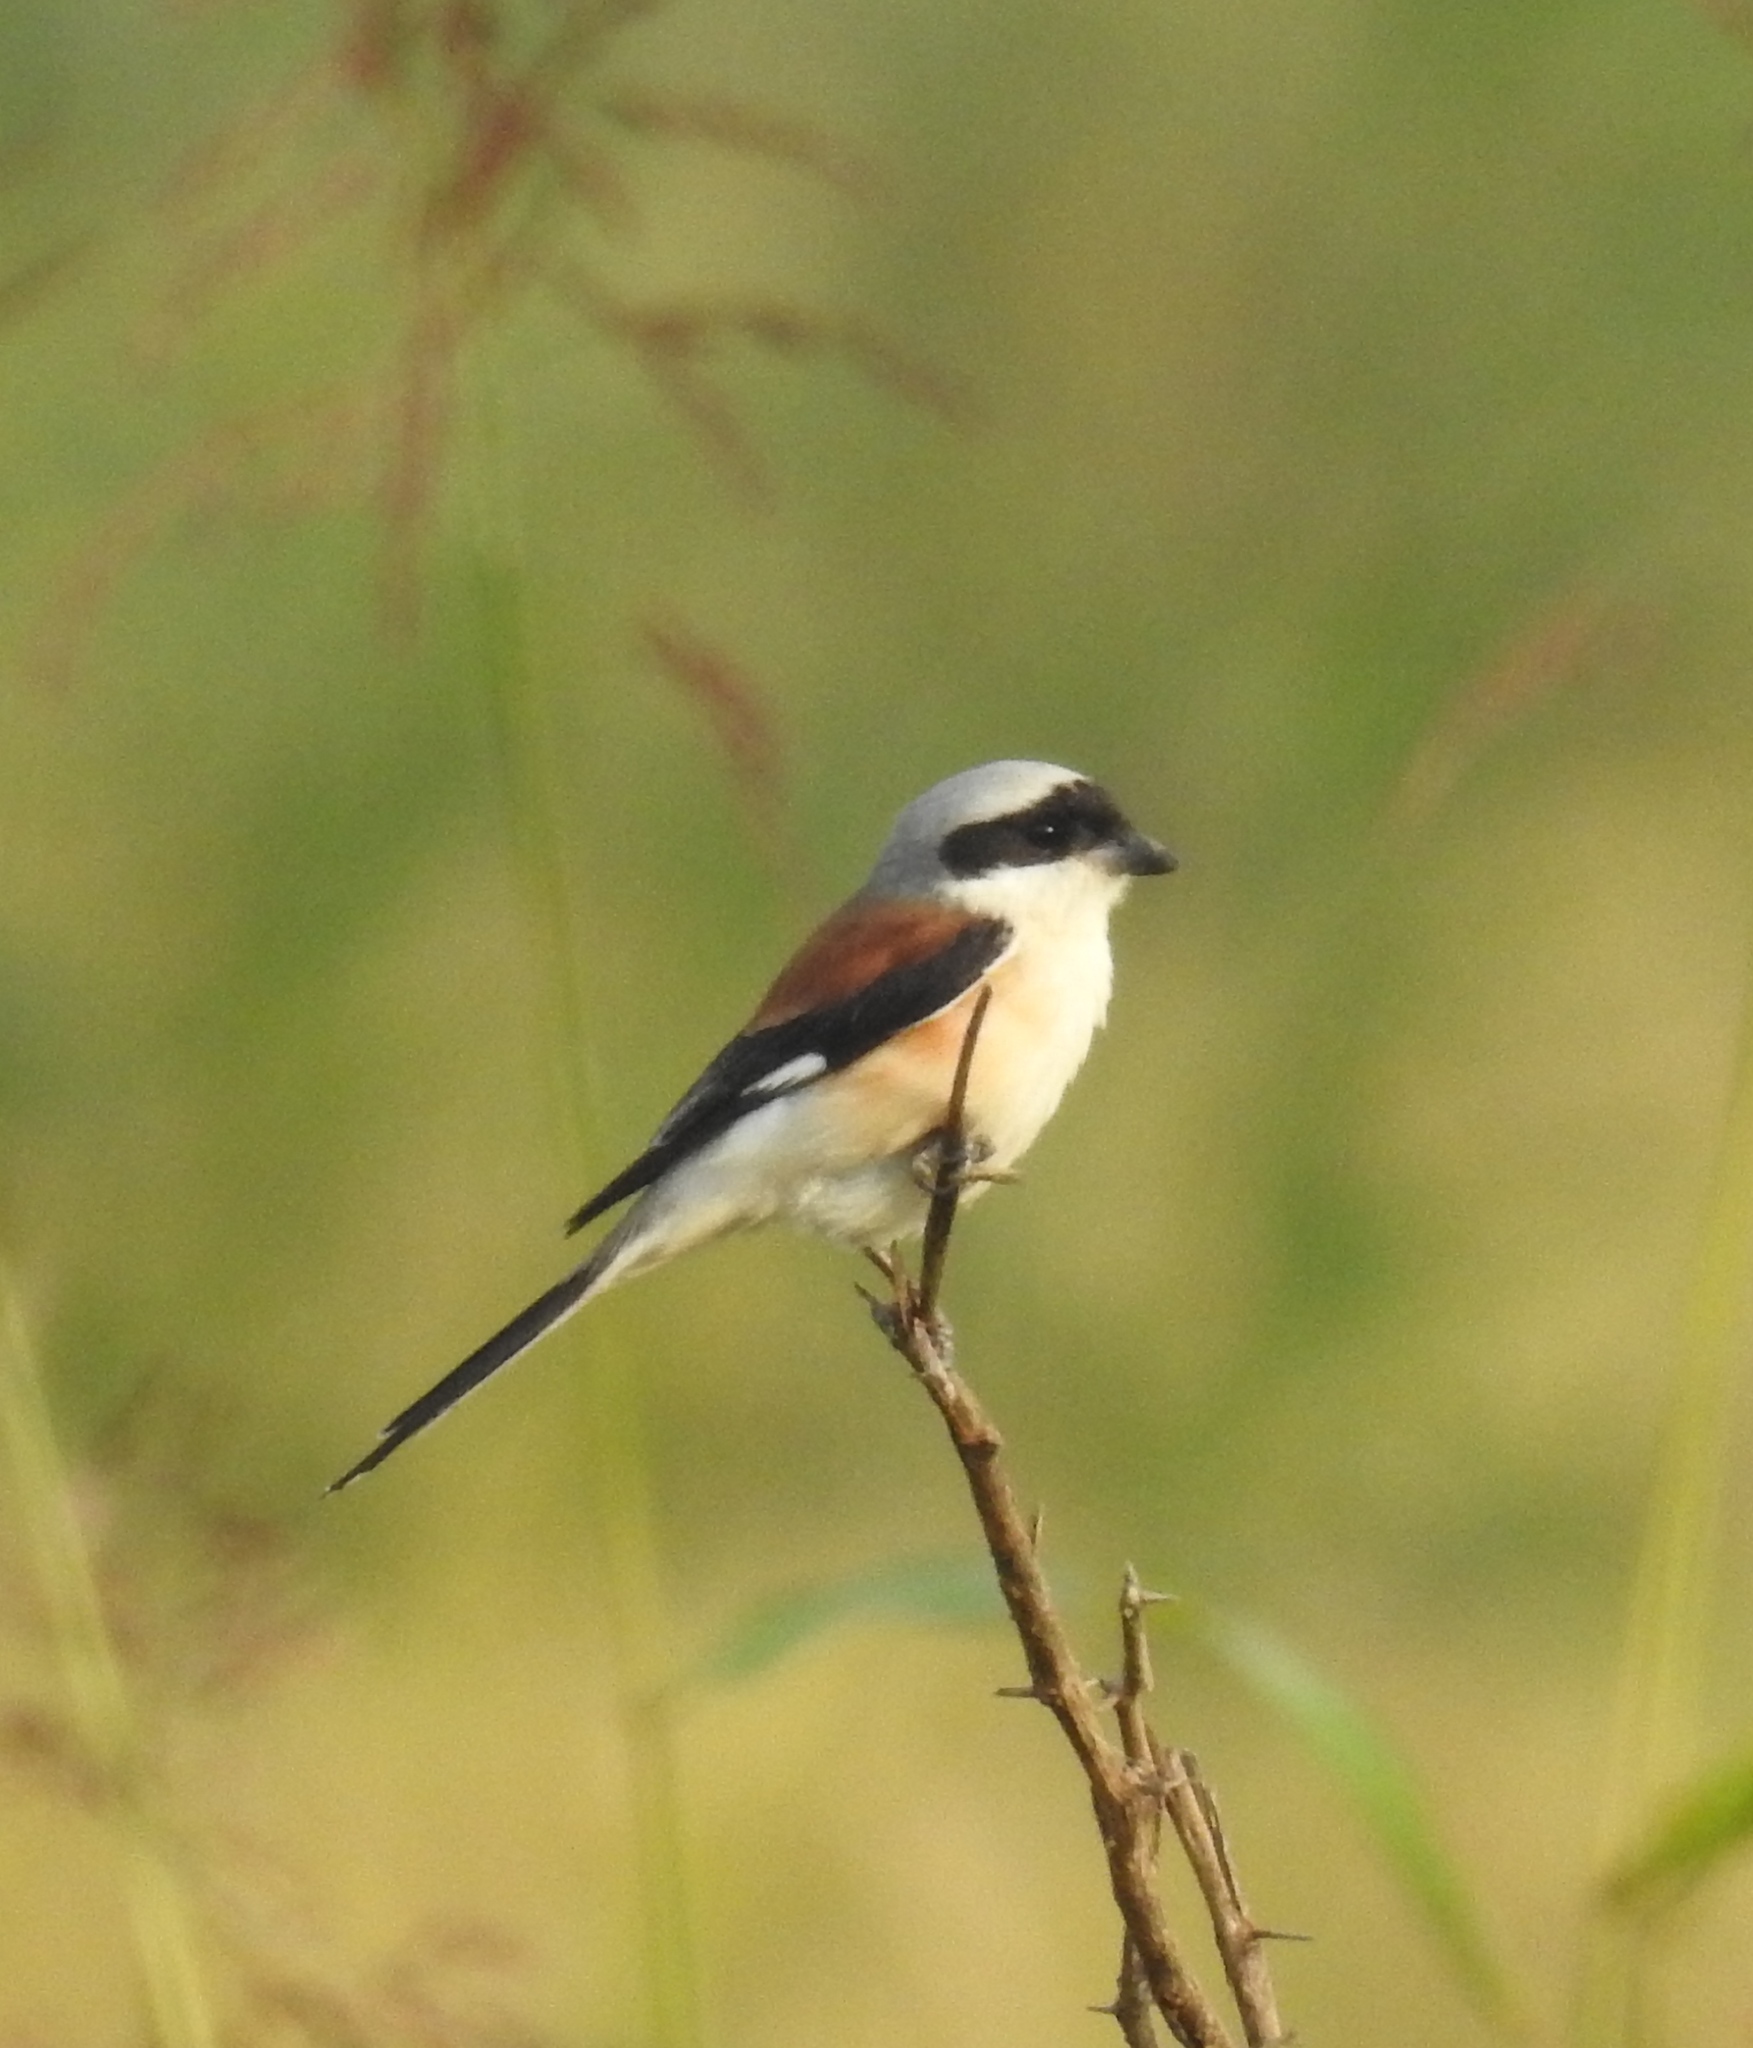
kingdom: Animalia
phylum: Chordata
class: Aves
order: Passeriformes
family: Laniidae
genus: Lanius
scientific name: Lanius vittatus
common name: Bay-backed shrike
